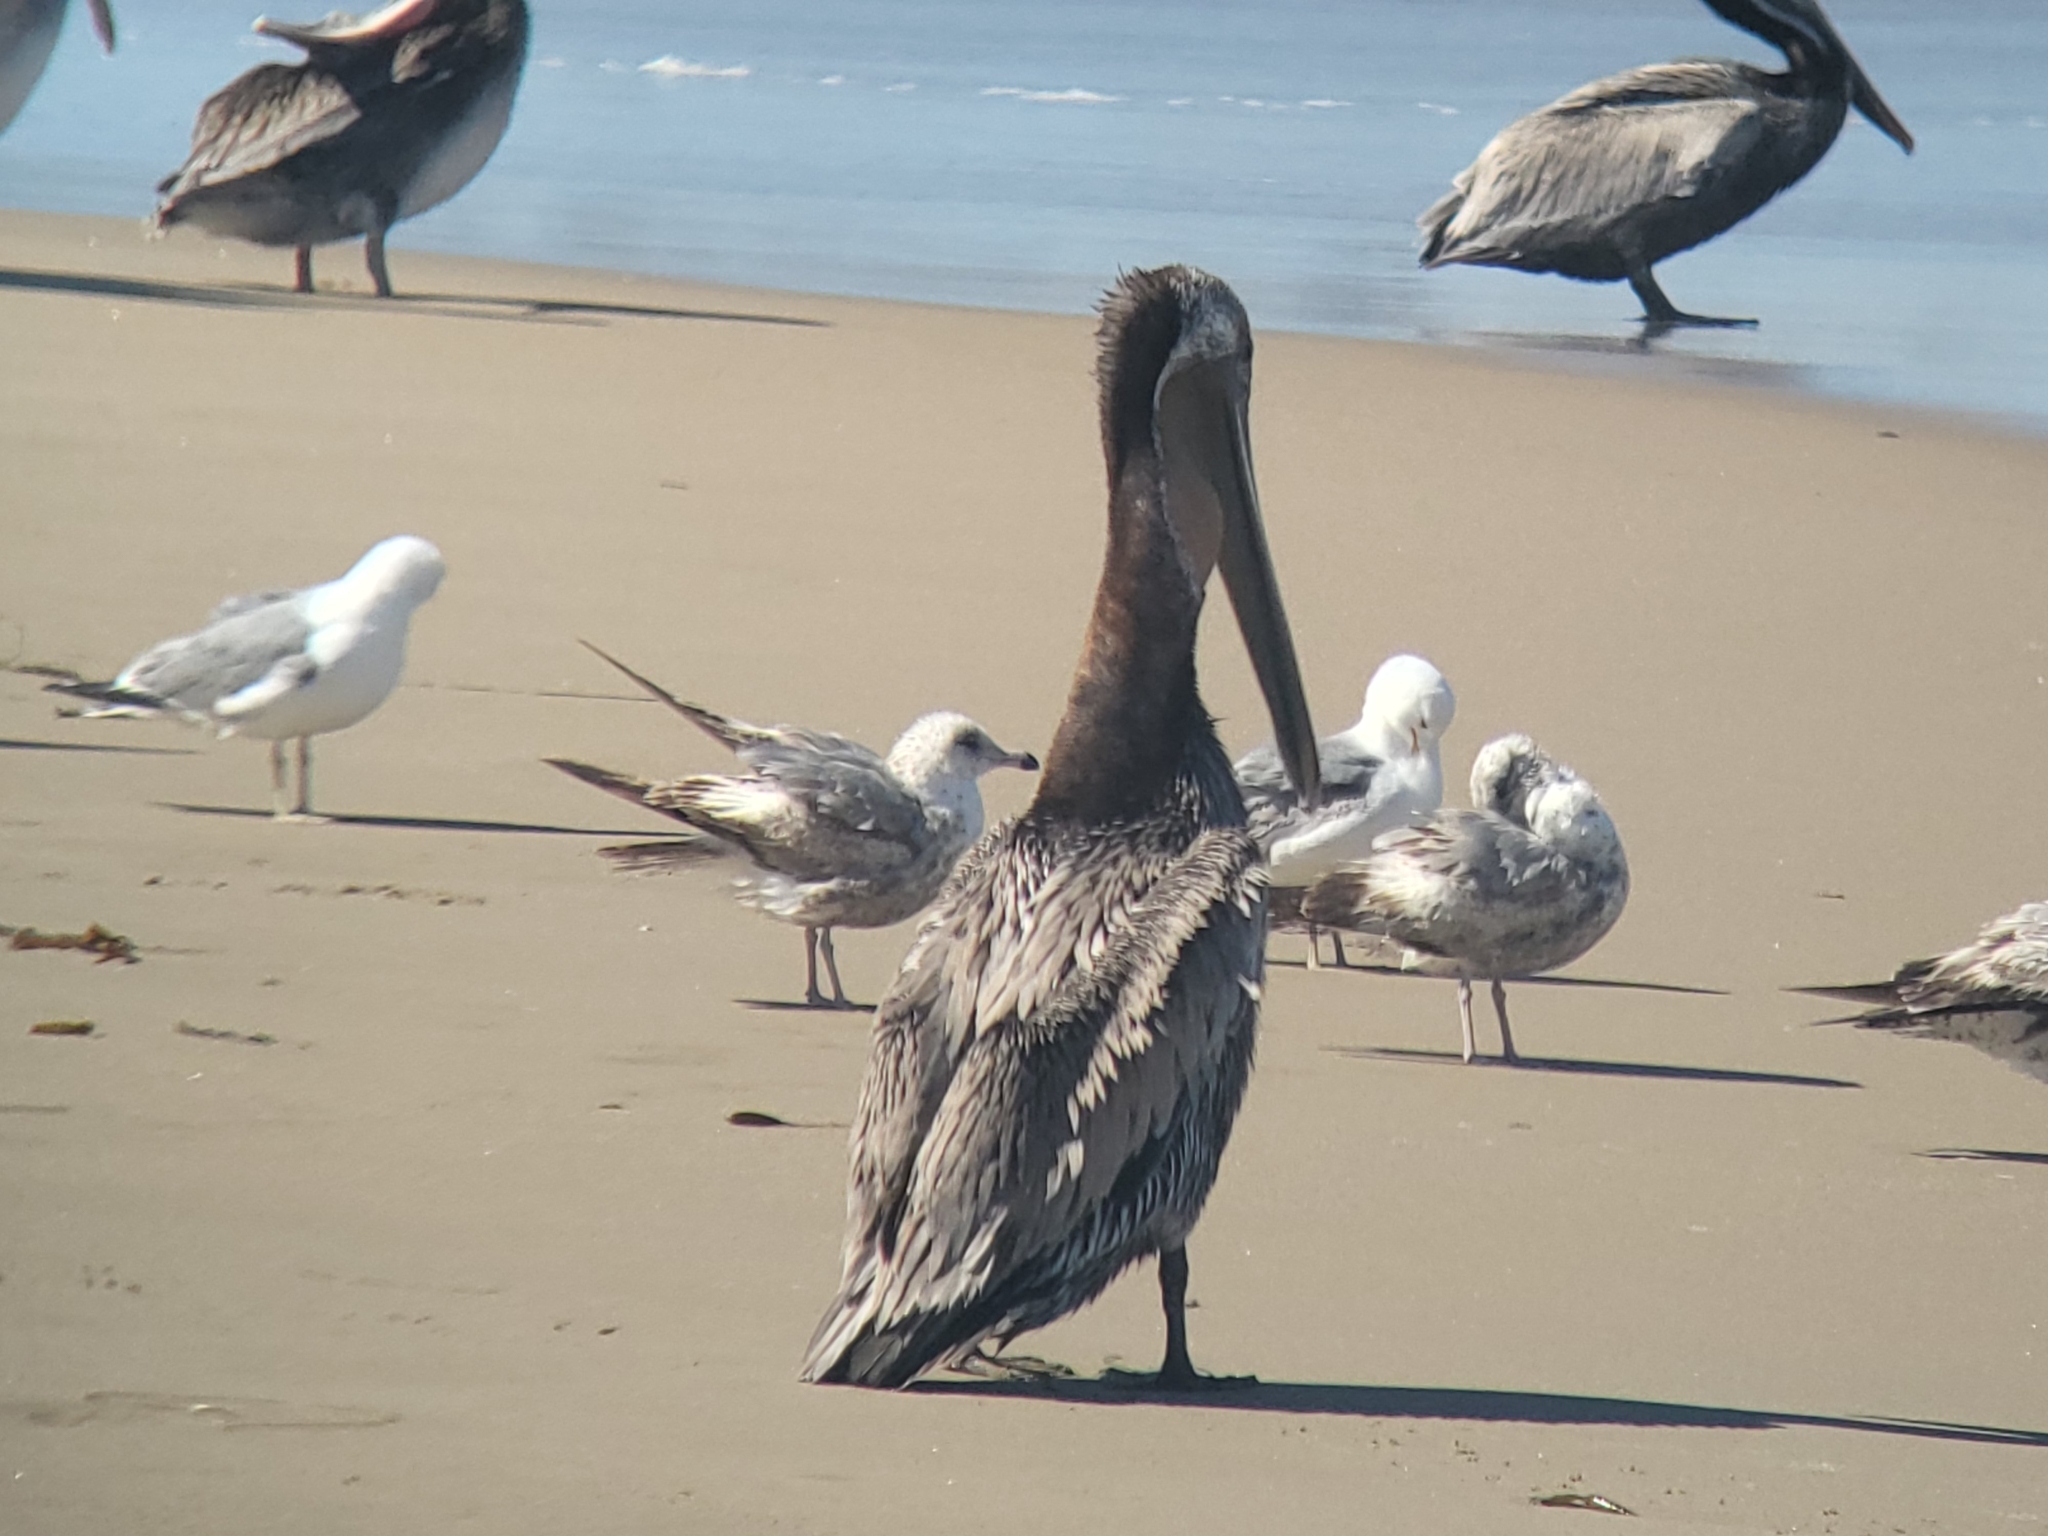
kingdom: Animalia
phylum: Chordata
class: Aves
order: Charadriiformes
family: Laridae
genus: Larus
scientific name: Larus californicus
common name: California gull
